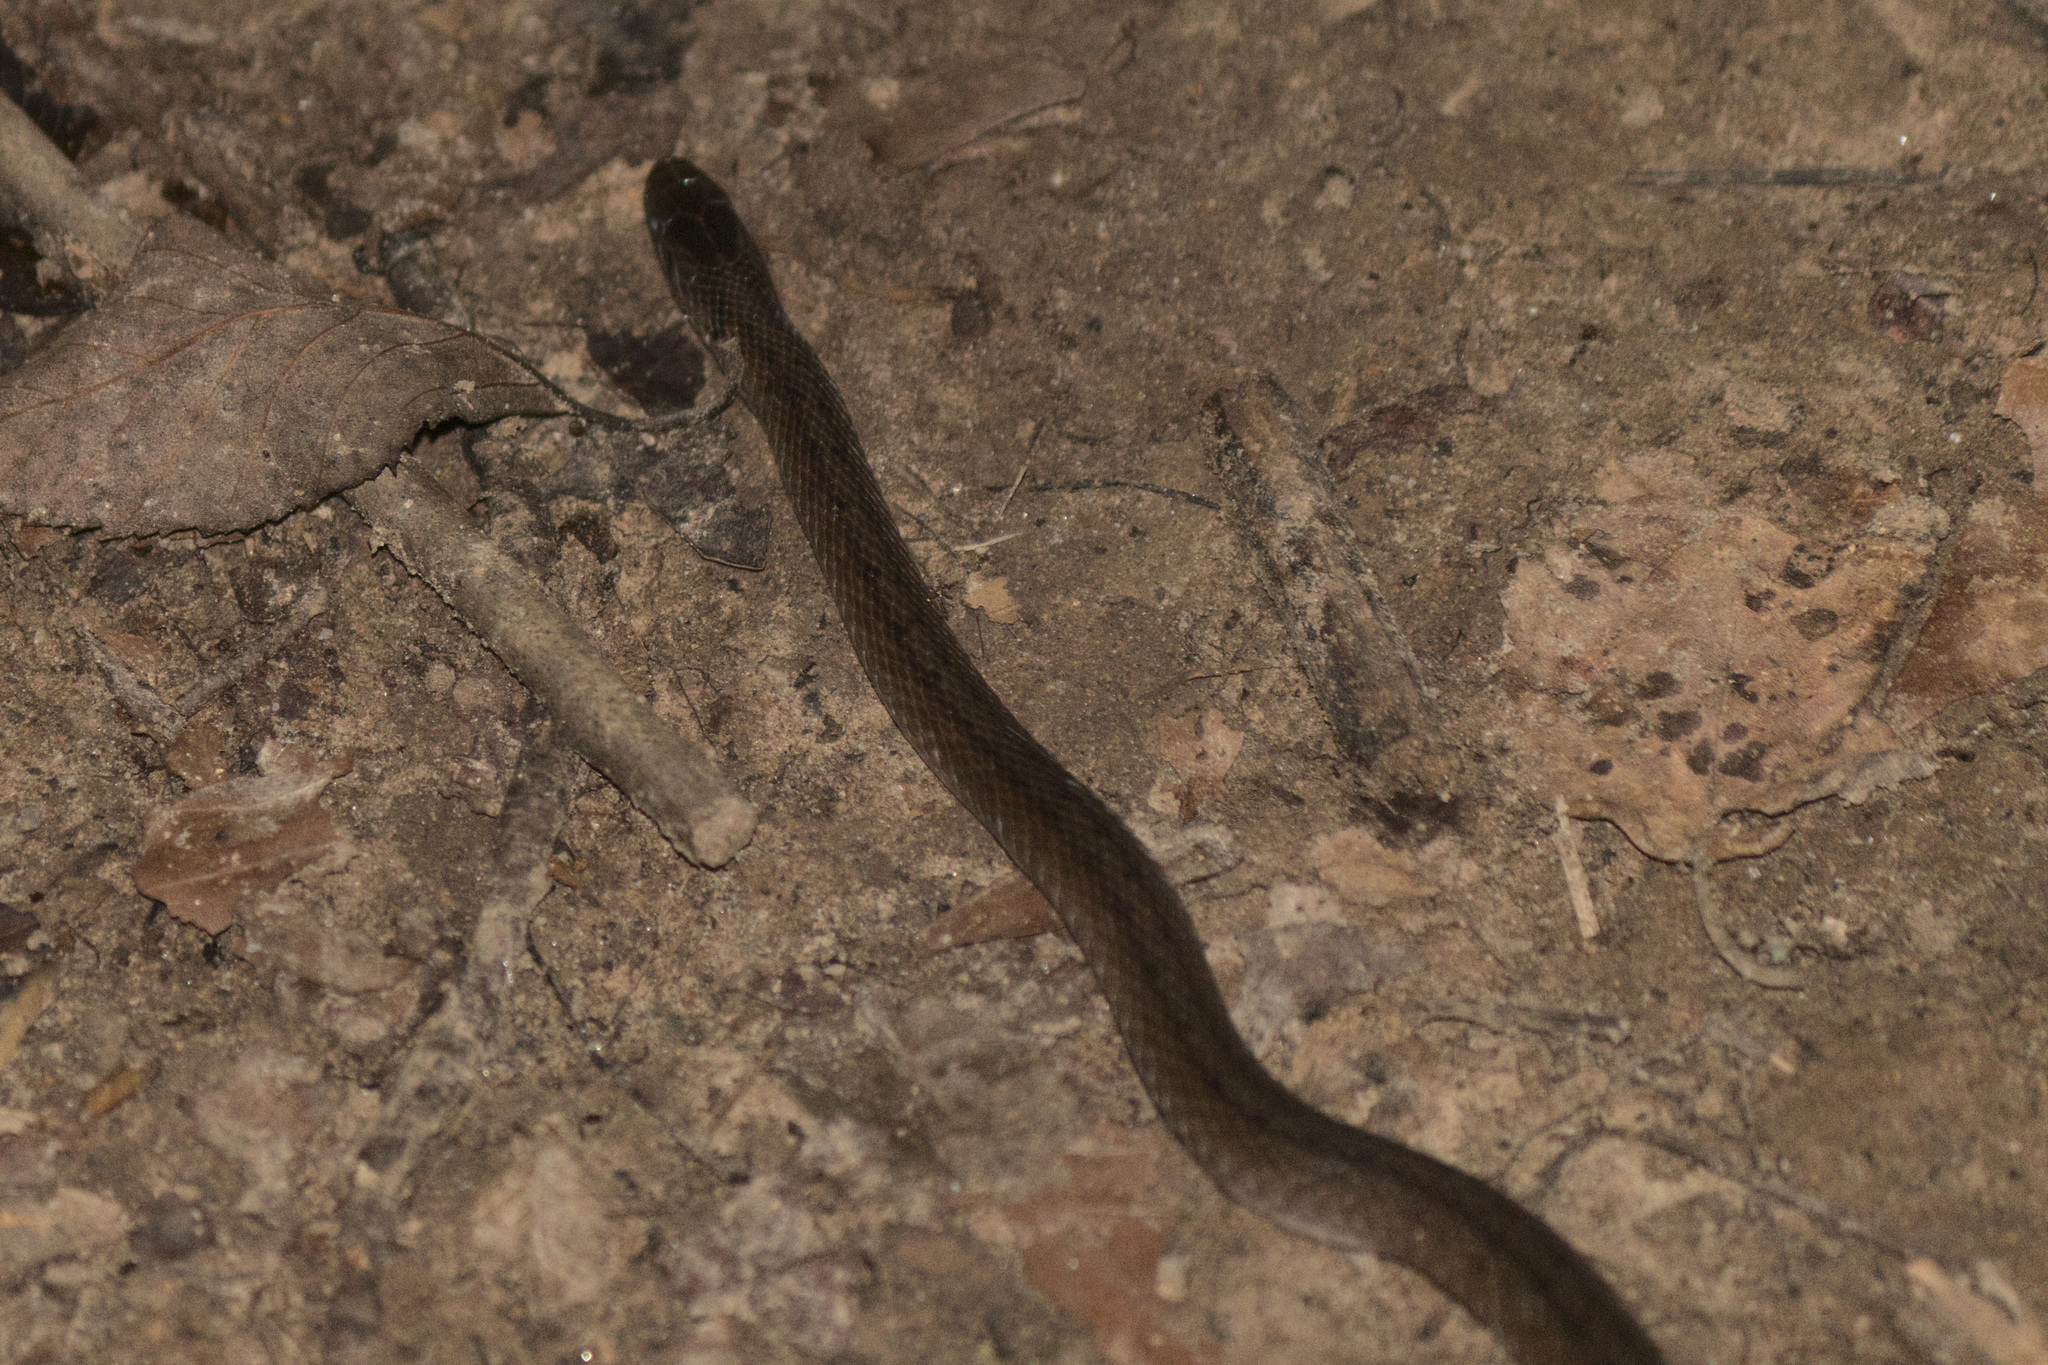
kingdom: Animalia
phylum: Chordata
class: Squamata
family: Colubridae
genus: Storeria
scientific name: Storeria dekayi
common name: (dekay’s) brown snake
